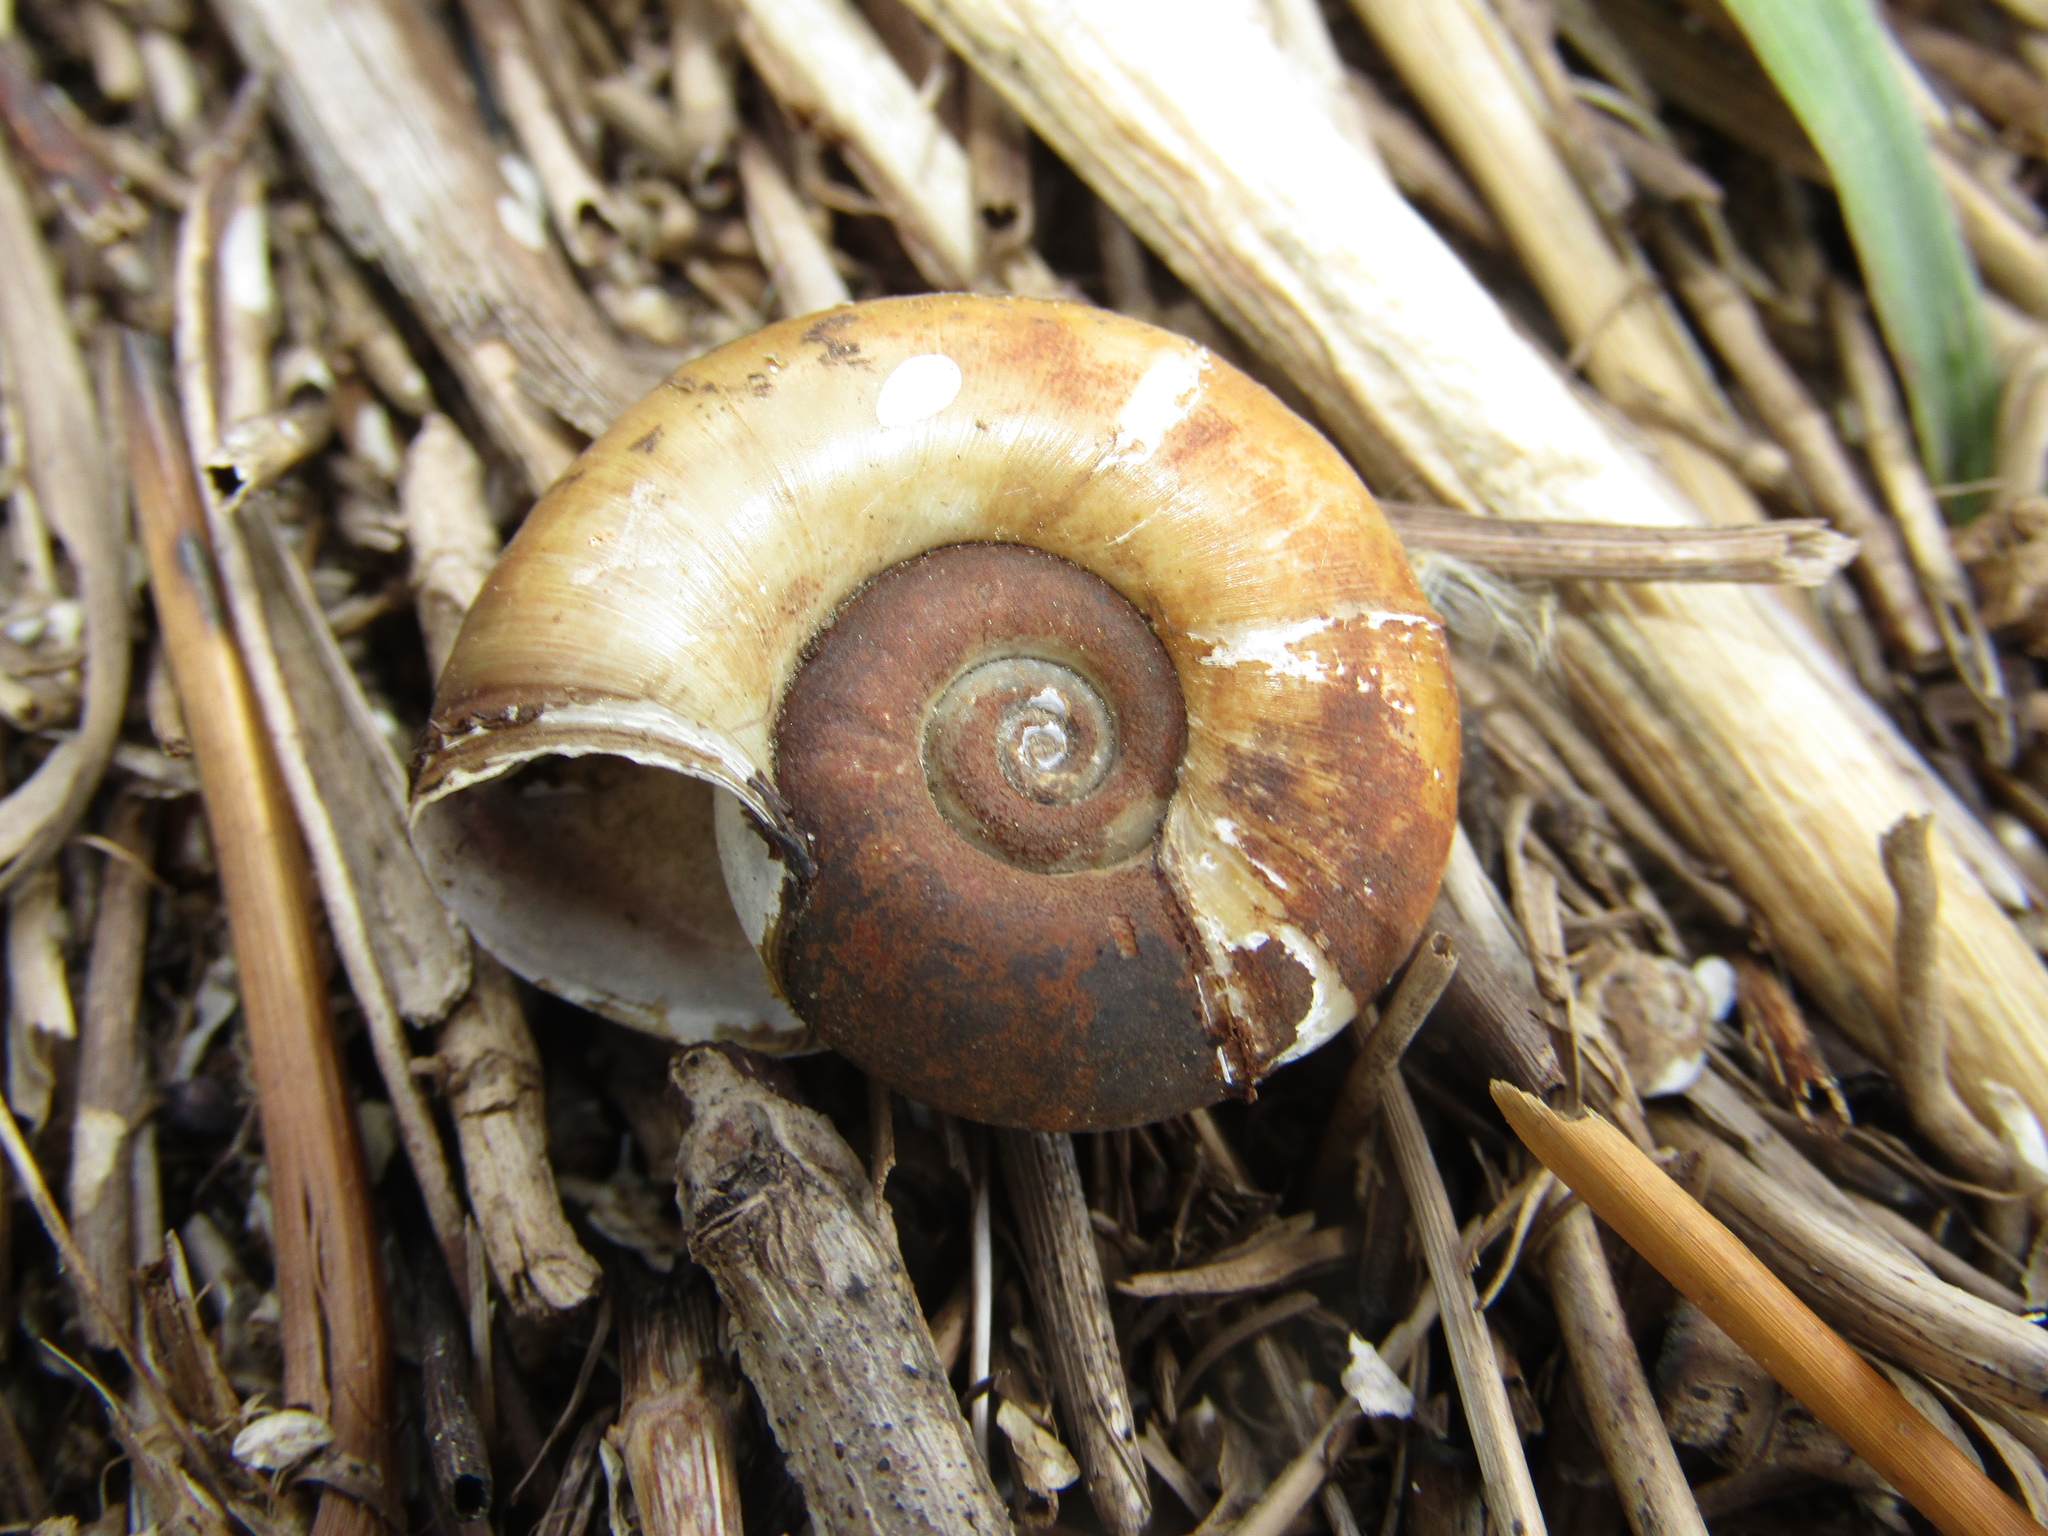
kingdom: Animalia
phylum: Mollusca
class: Gastropoda
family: Planorbidae
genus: Planorbarius
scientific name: Planorbarius corneus
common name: Great ramshorn
